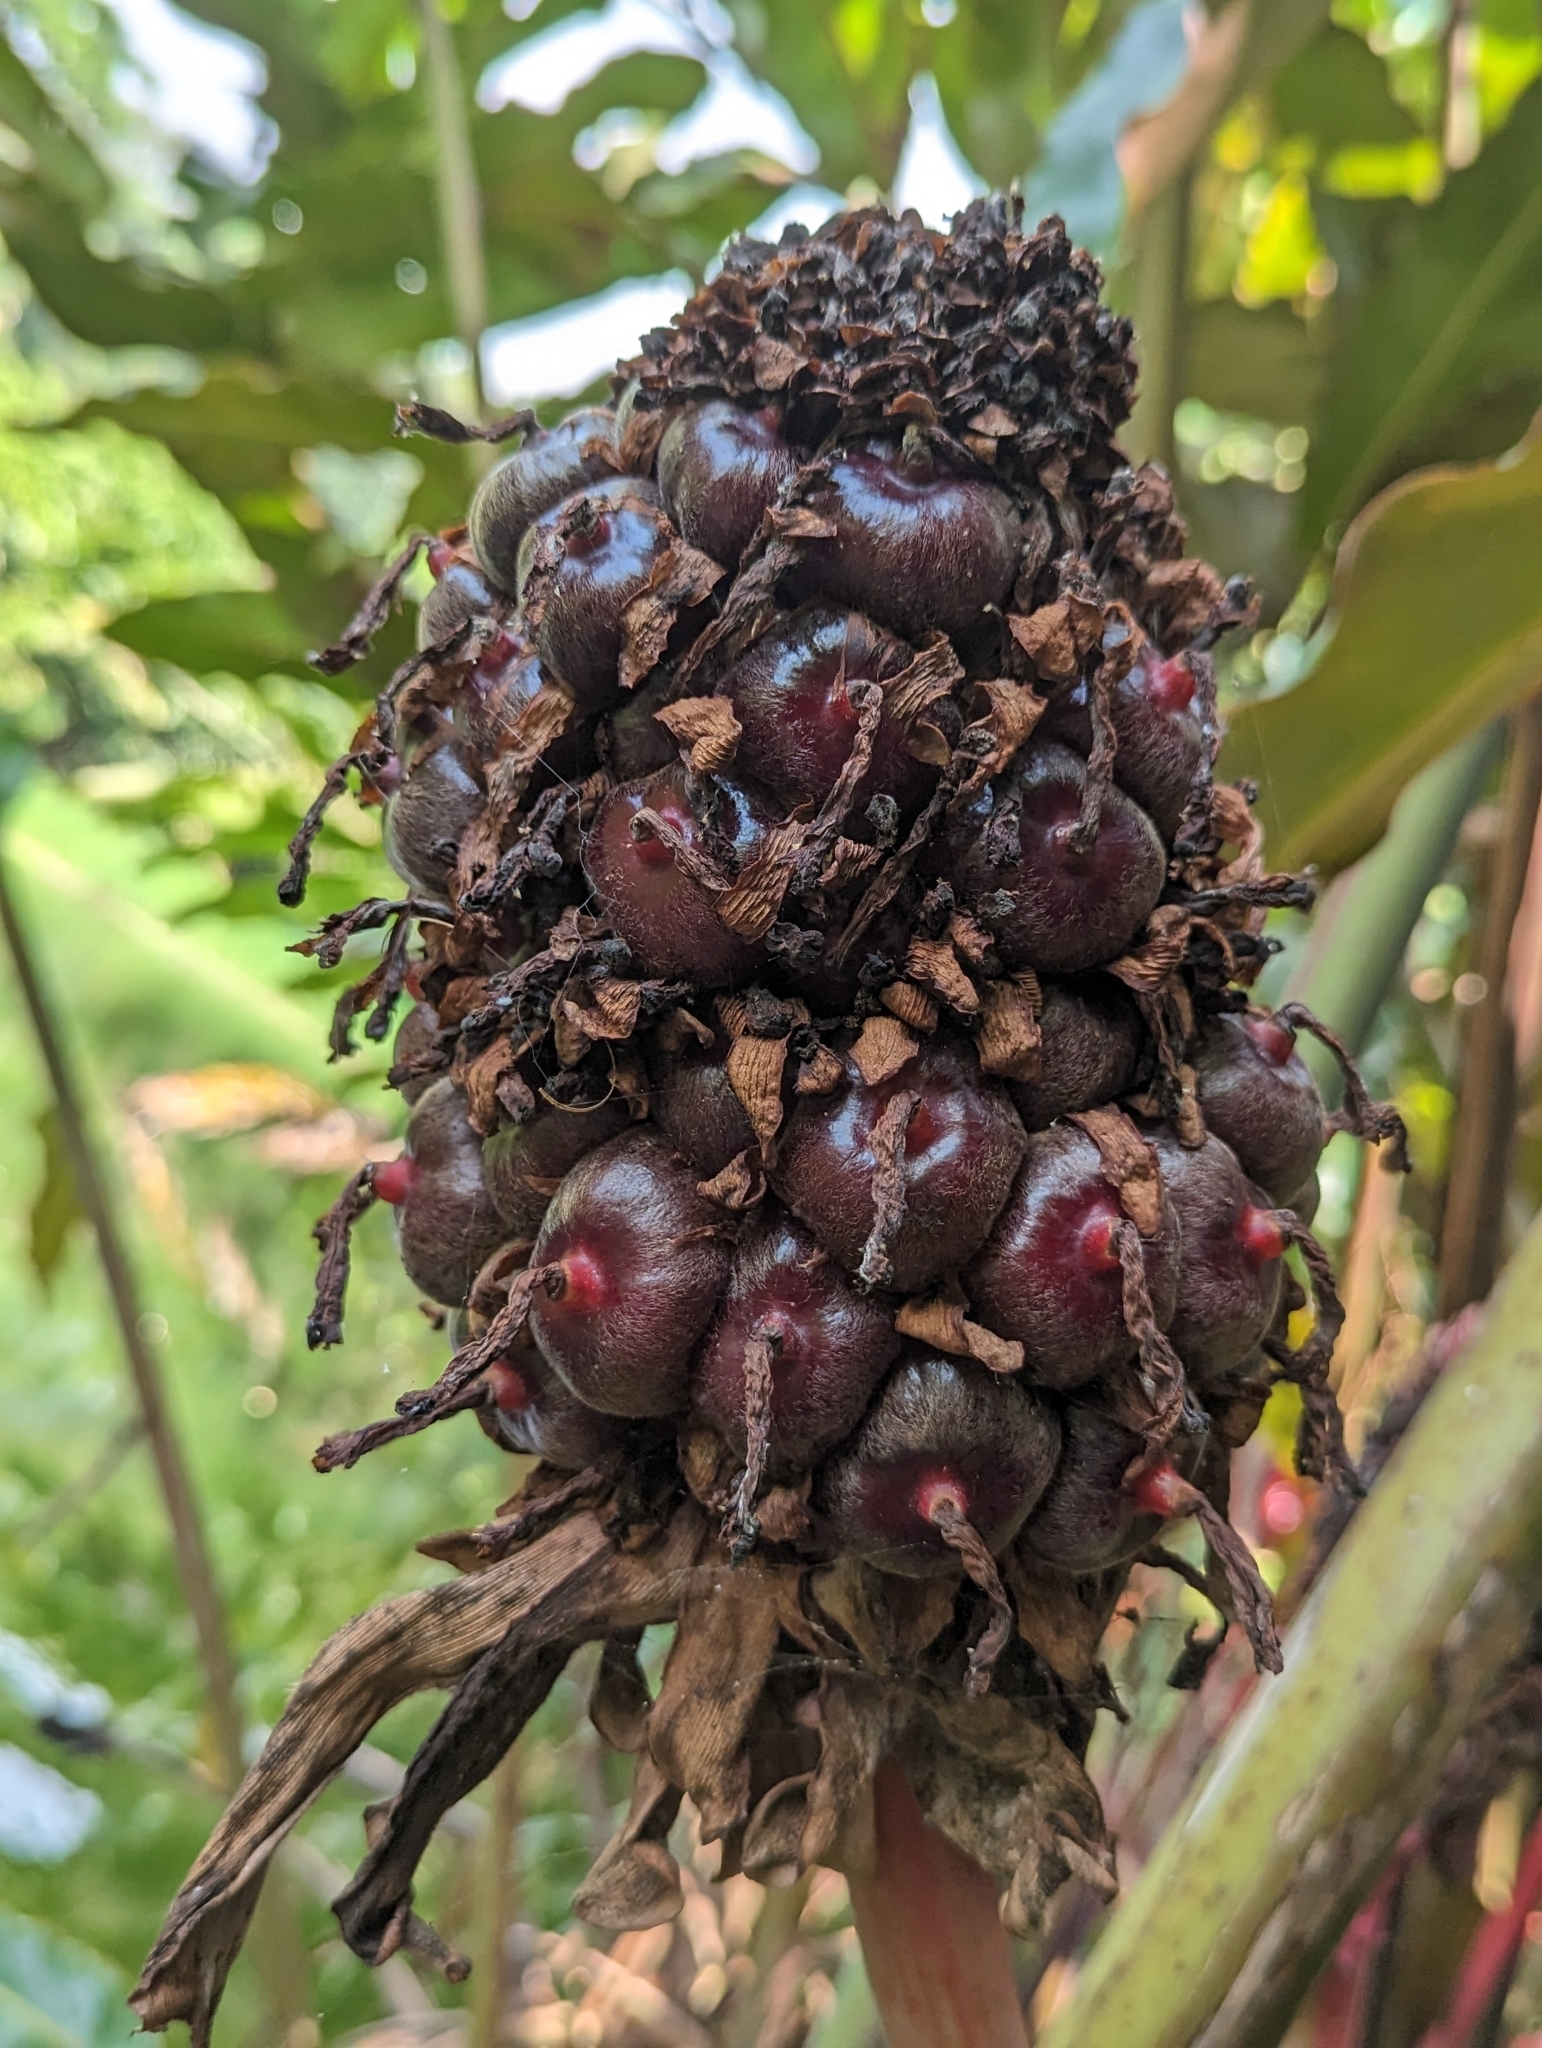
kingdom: Plantae
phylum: Tracheophyta
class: Liliopsida
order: Zingiberales
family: Zingiberaceae
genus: Etlingera
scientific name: Etlingera elatior
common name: Philippine waxflower
